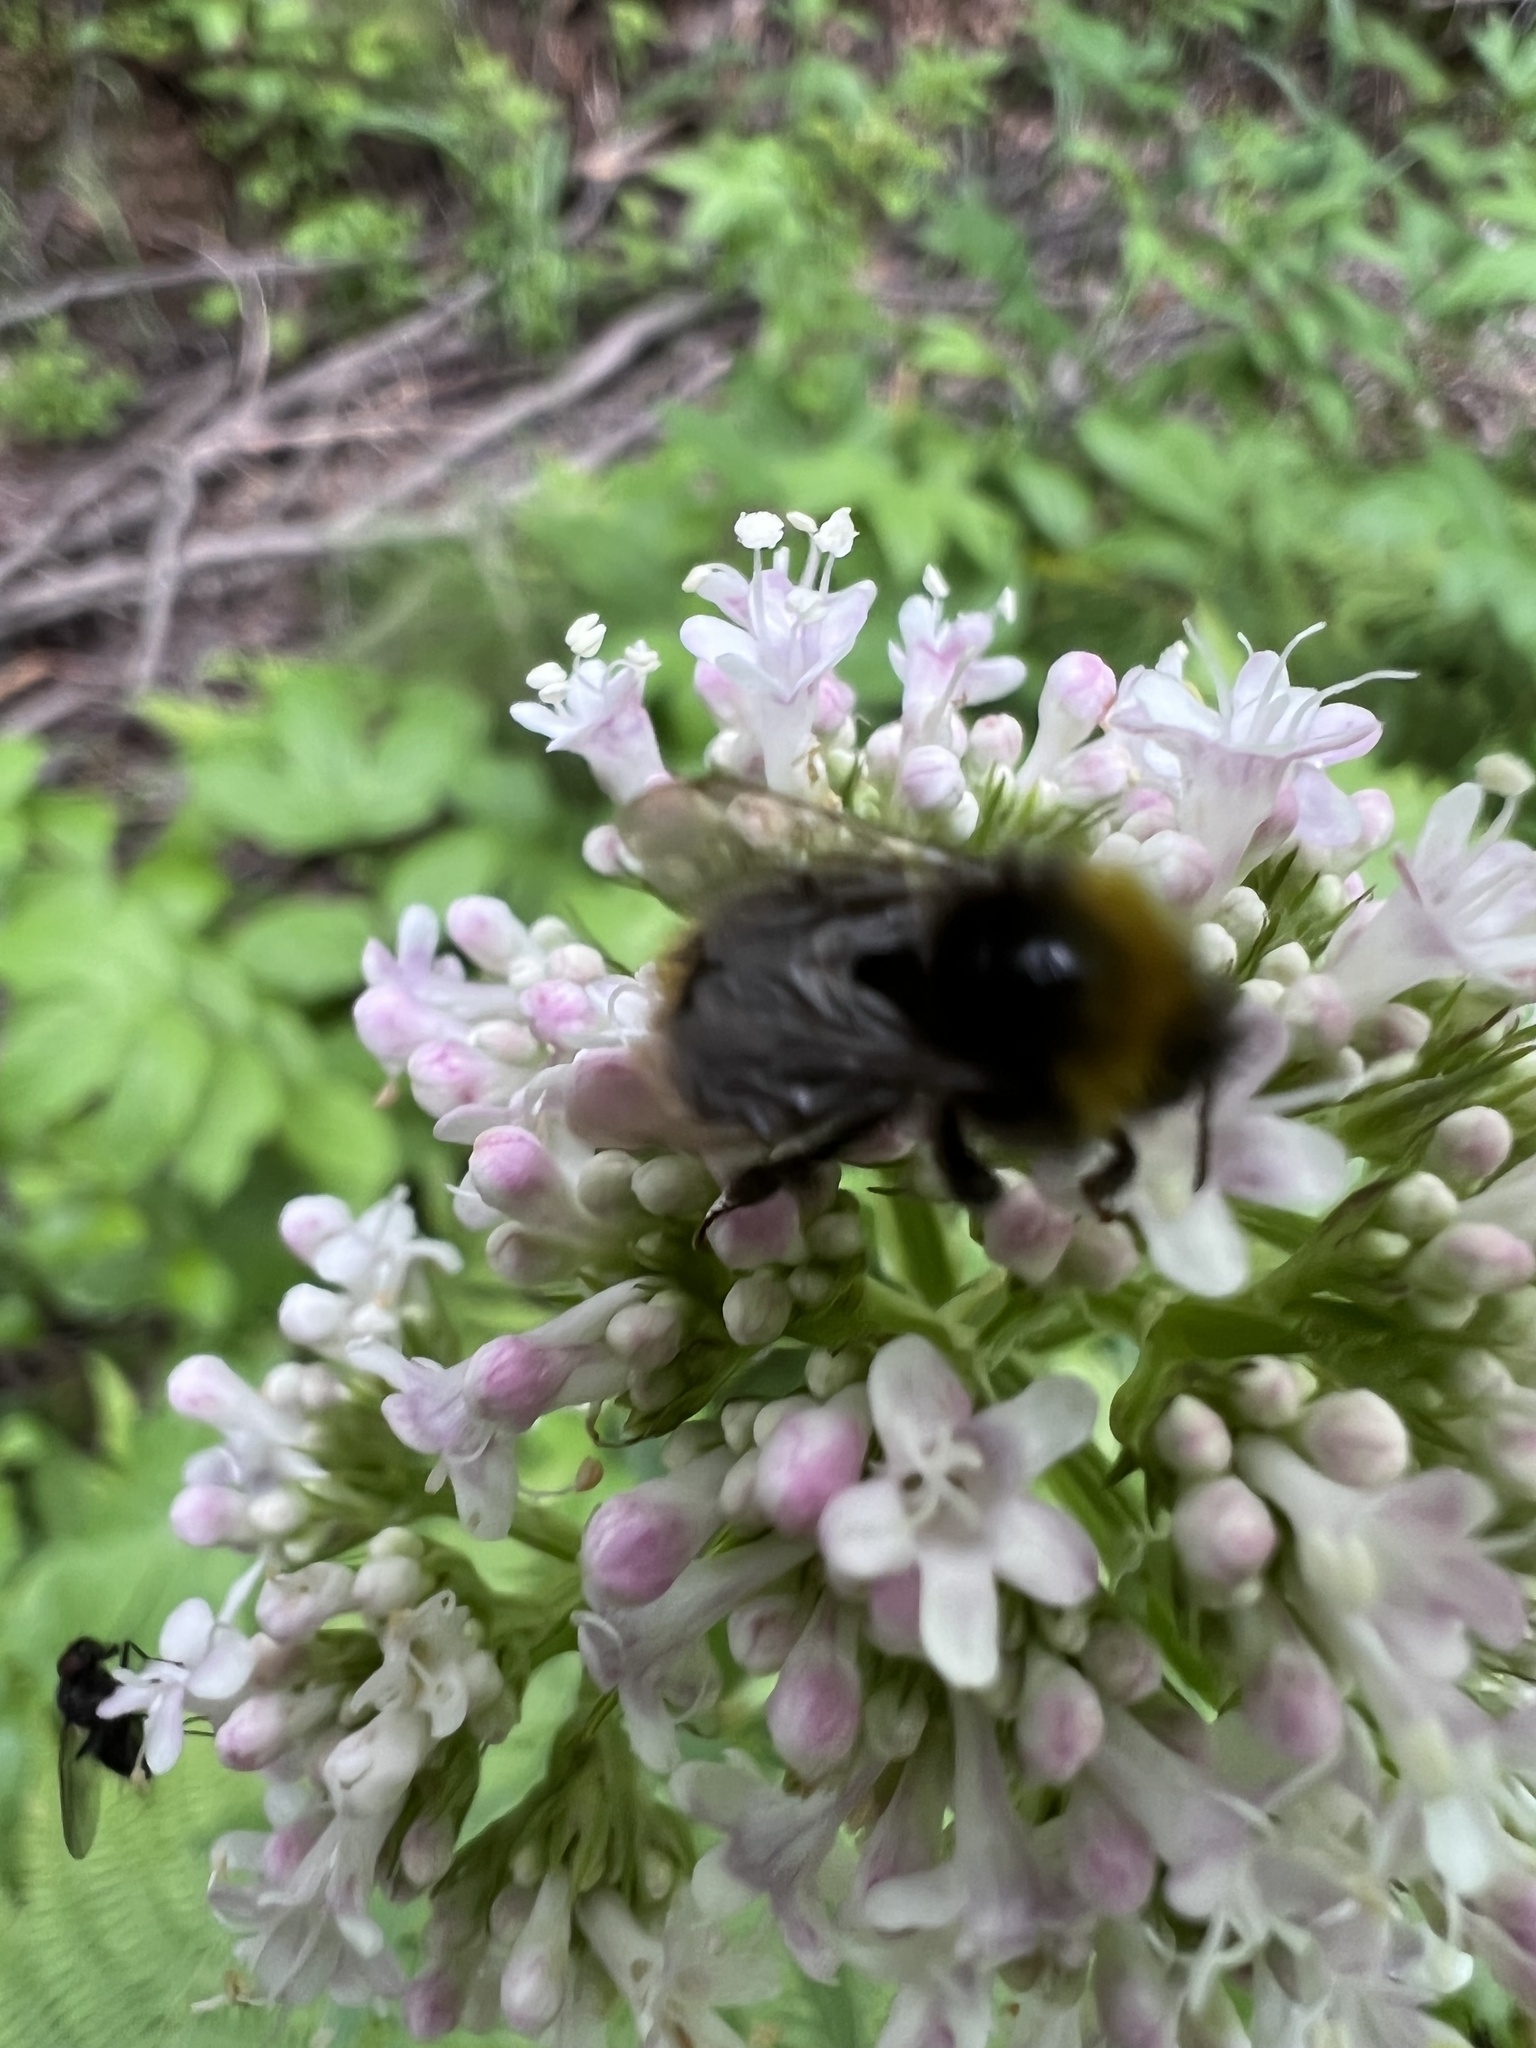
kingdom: Animalia
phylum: Arthropoda
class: Insecta
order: Hymenoptera
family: Apidae
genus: Bombus
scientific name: Bombus pratorum
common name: Early humble-bee
